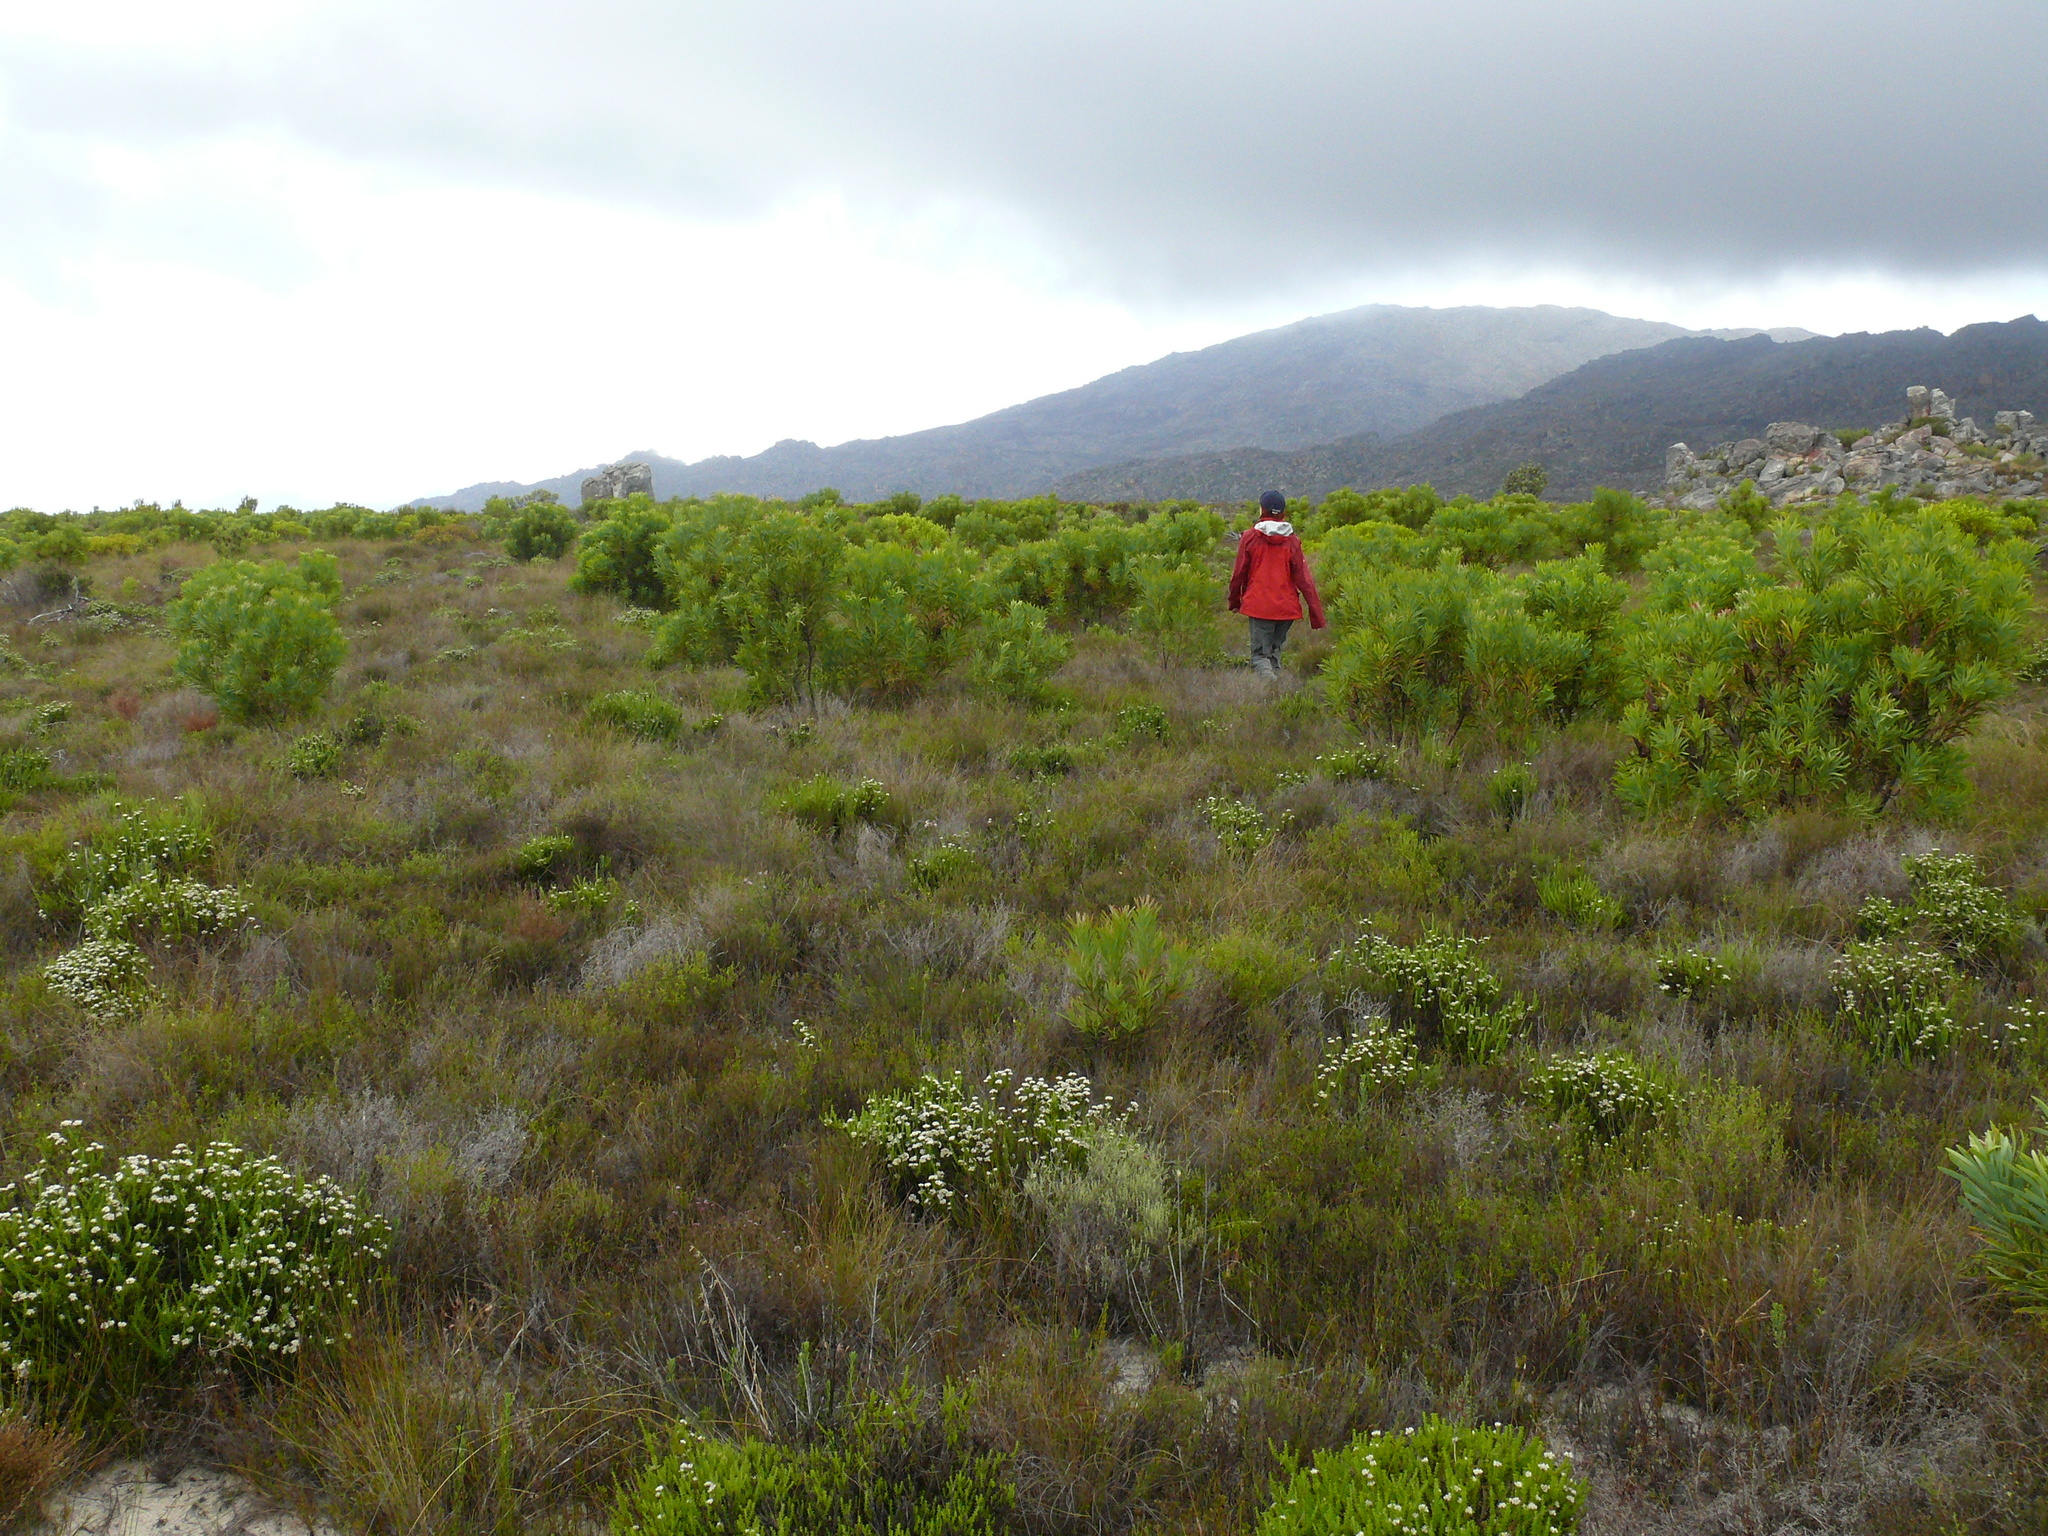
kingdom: Plantae
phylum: Tracheophyta
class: Magnoliopsida
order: Proteales
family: Proteaceae
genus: Protea
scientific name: Protea repens
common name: Sugarbush
